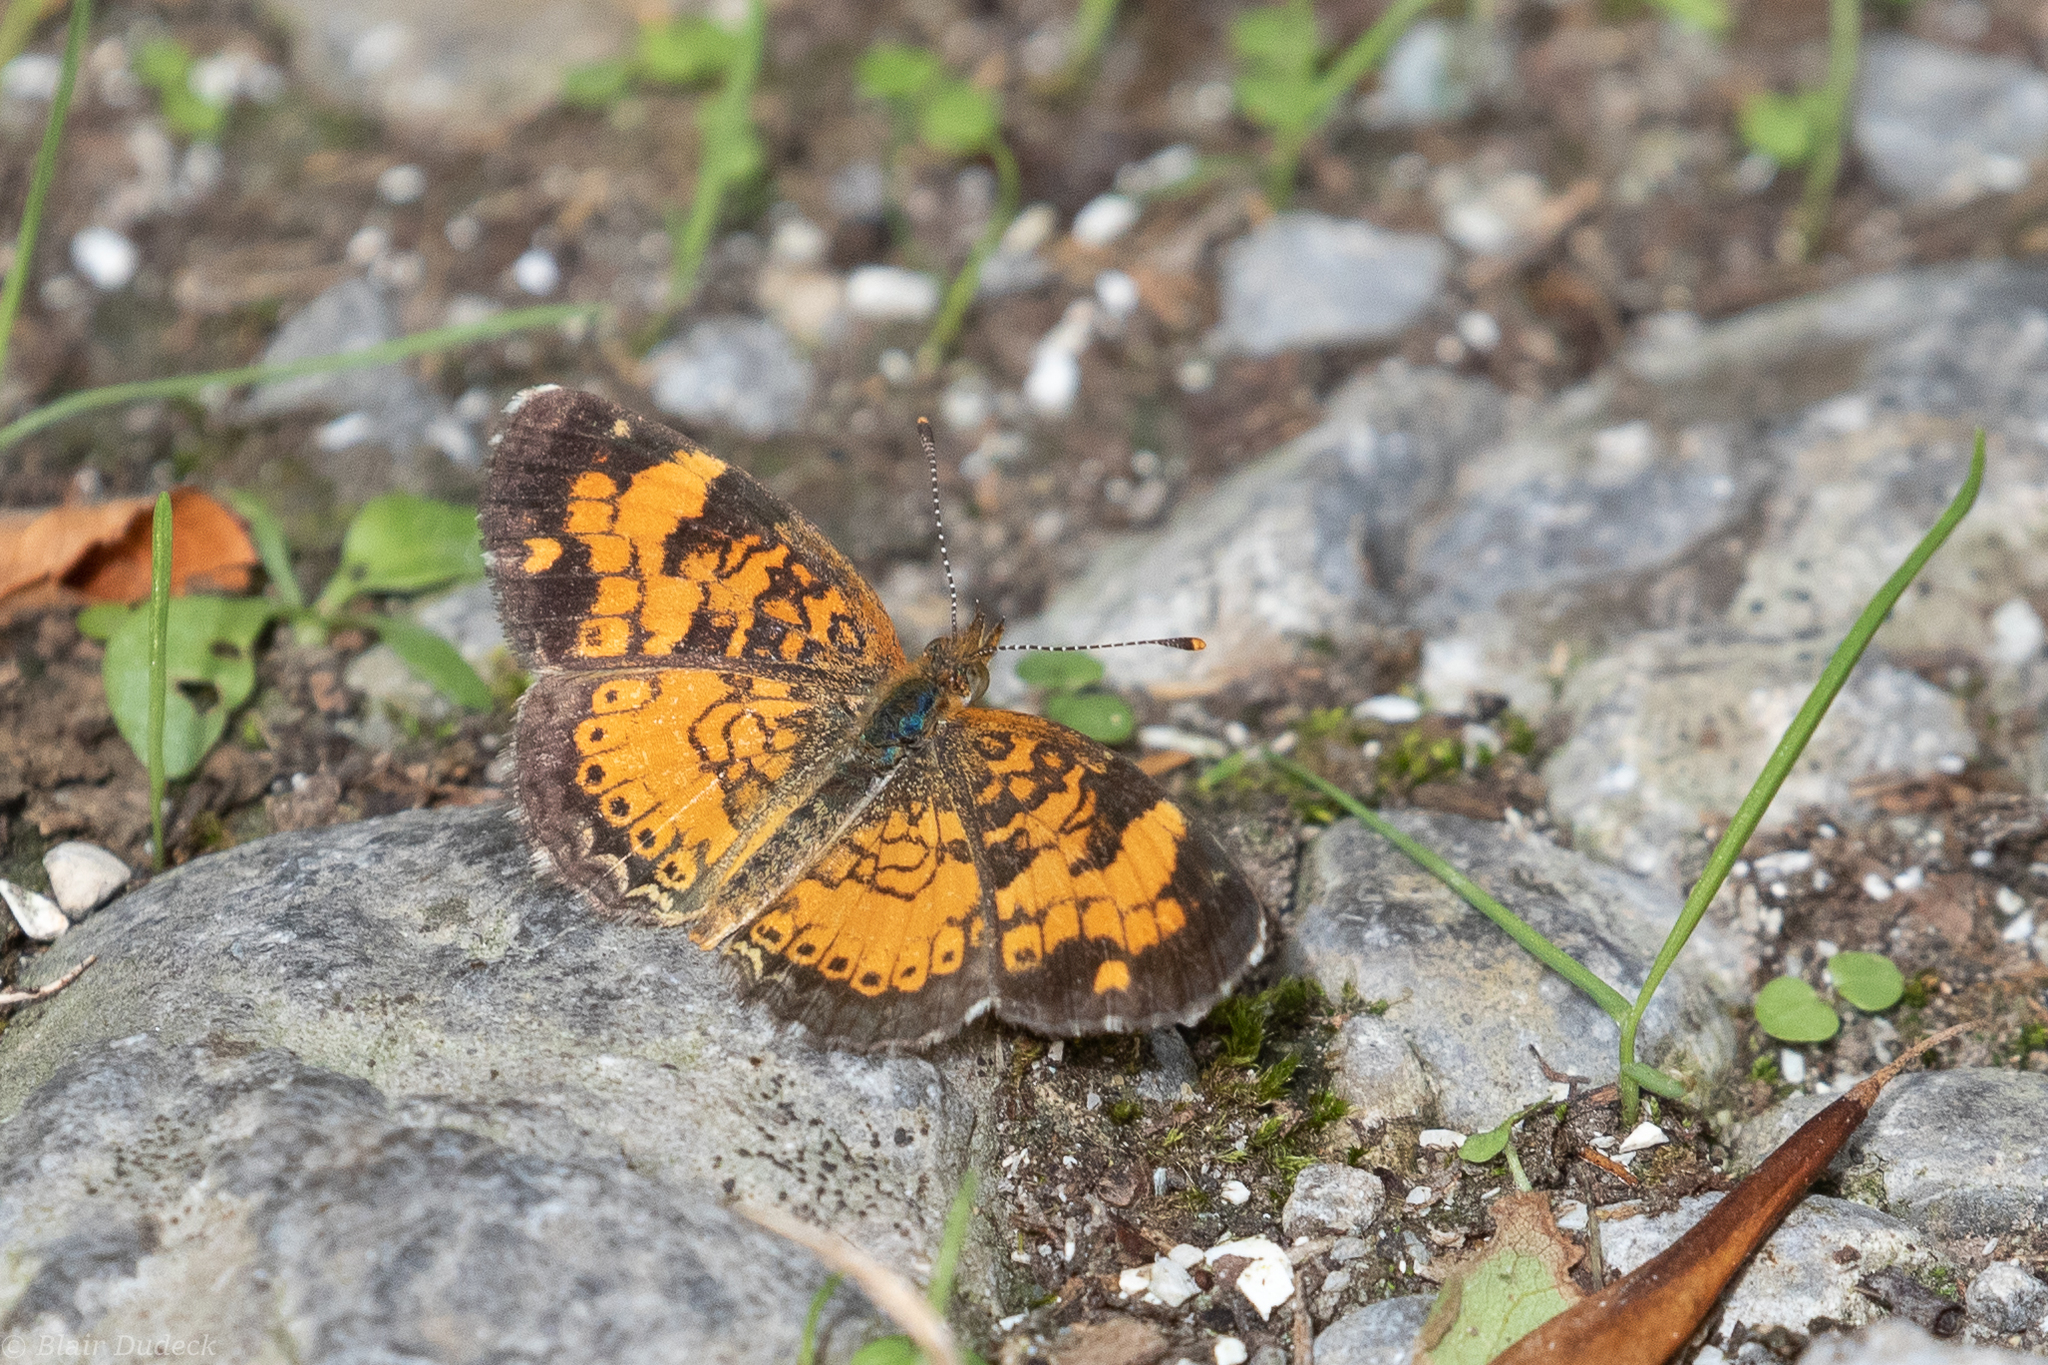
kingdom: Animalia
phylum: Arthropoda
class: Insecta
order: Lepidoptera
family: Nymphalidae
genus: Phyciodes
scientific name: Phyciodes tharos
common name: Pearl crescent
